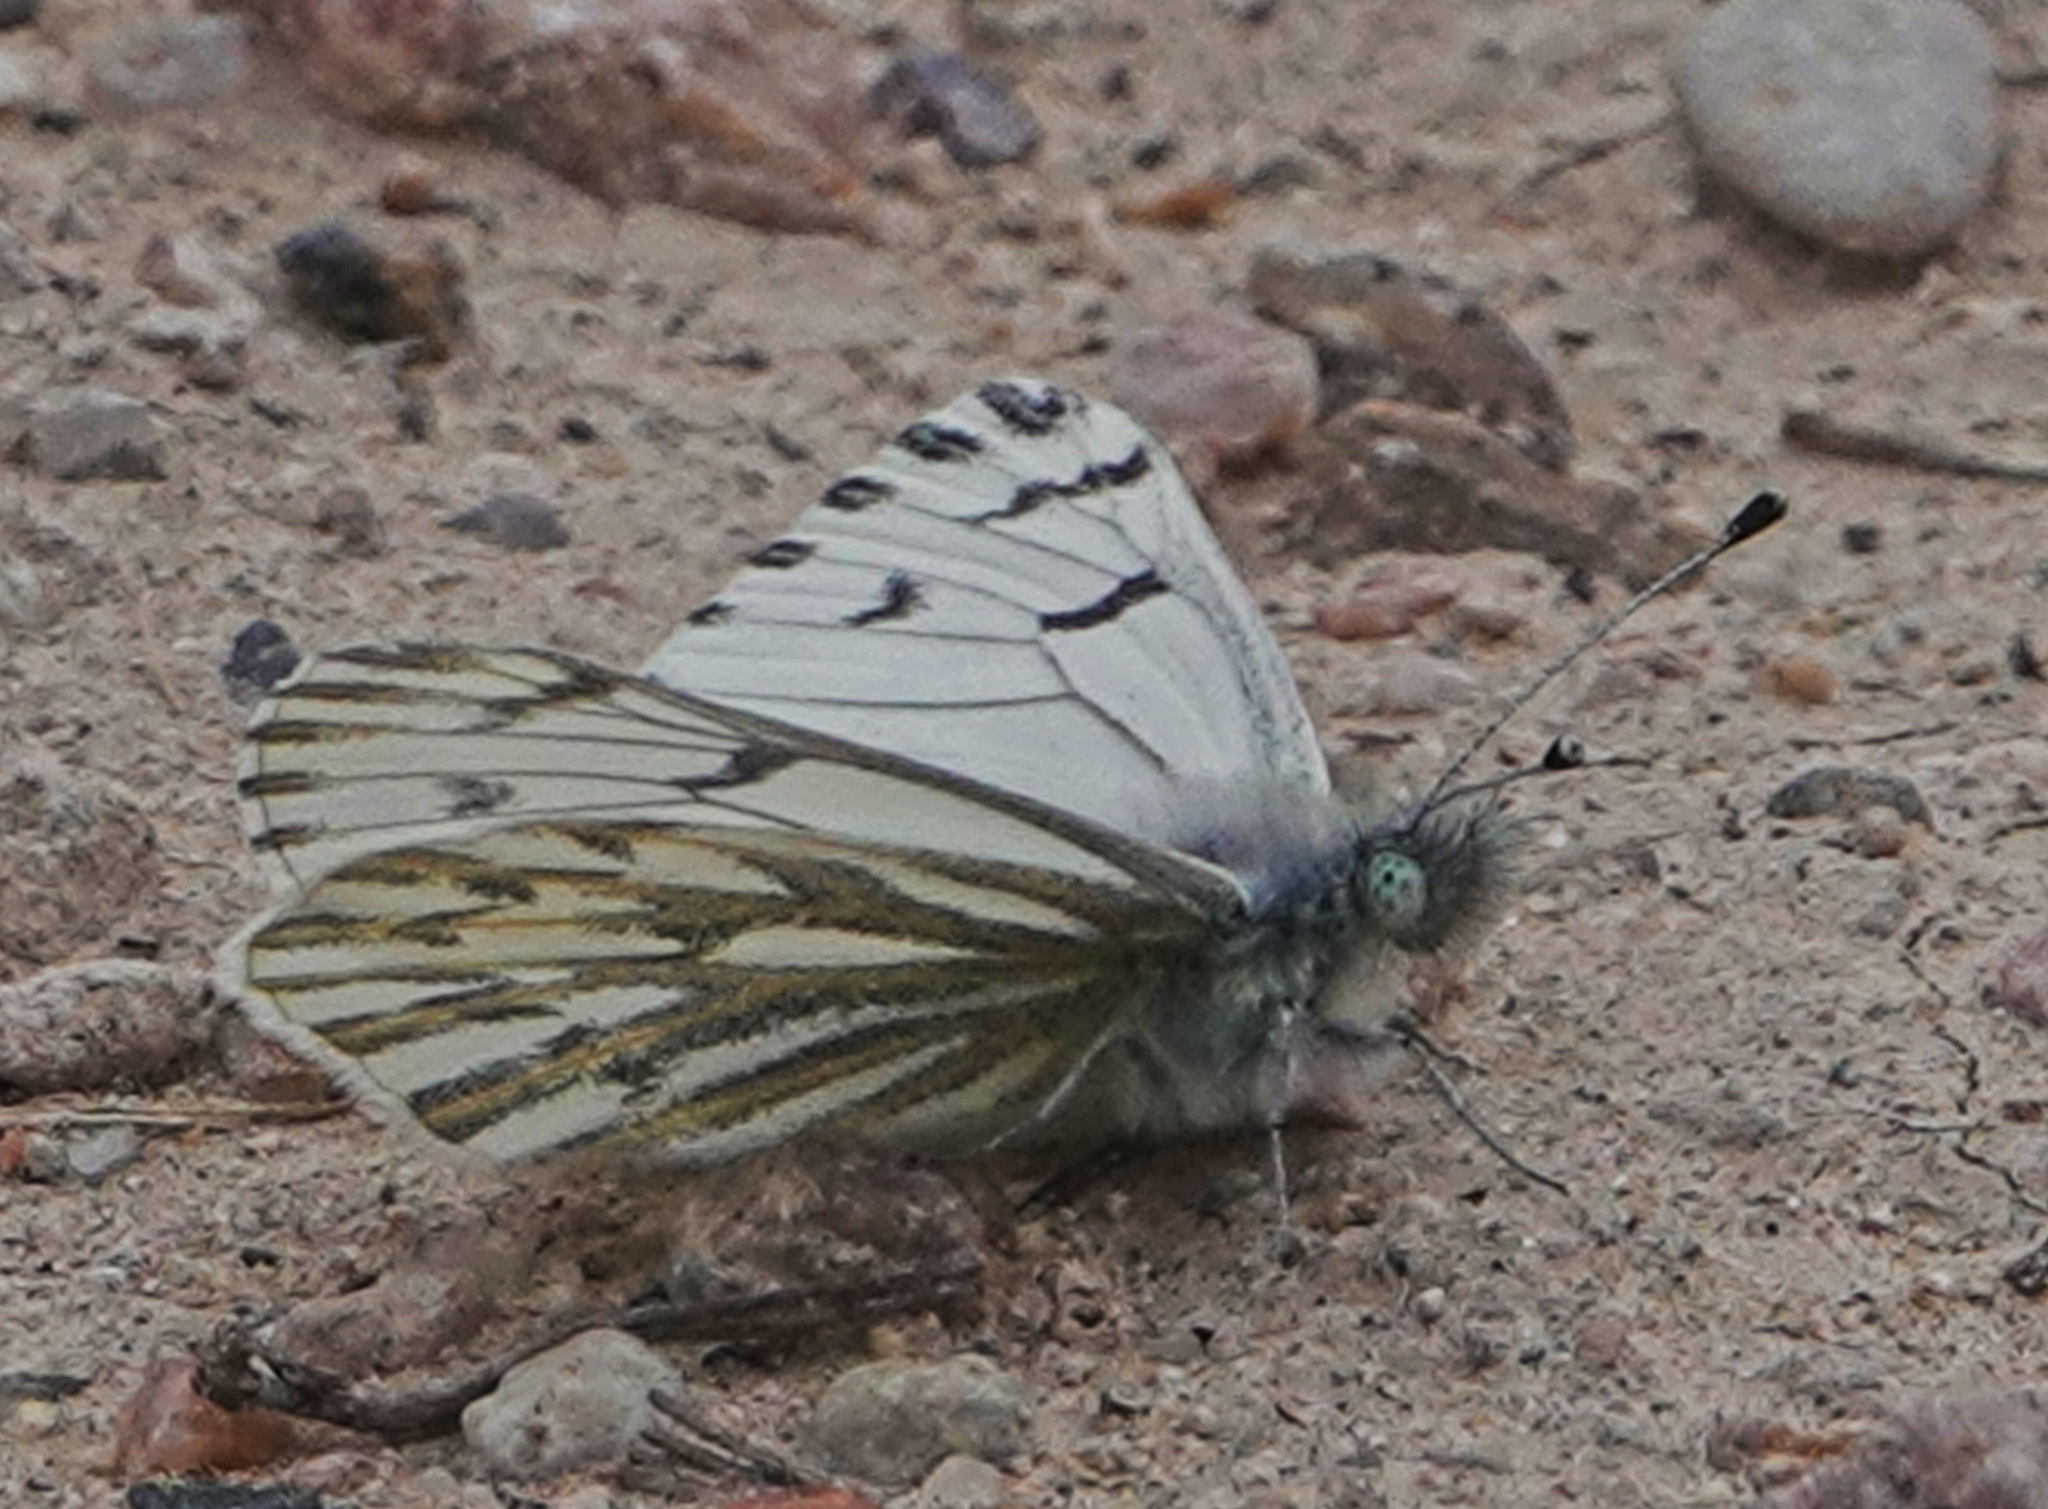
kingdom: Animalia
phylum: Arthropoda
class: Insecta
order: Lepidoptera
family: Pieridae
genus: Pontia
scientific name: Pontia sisymbrii
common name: California white
